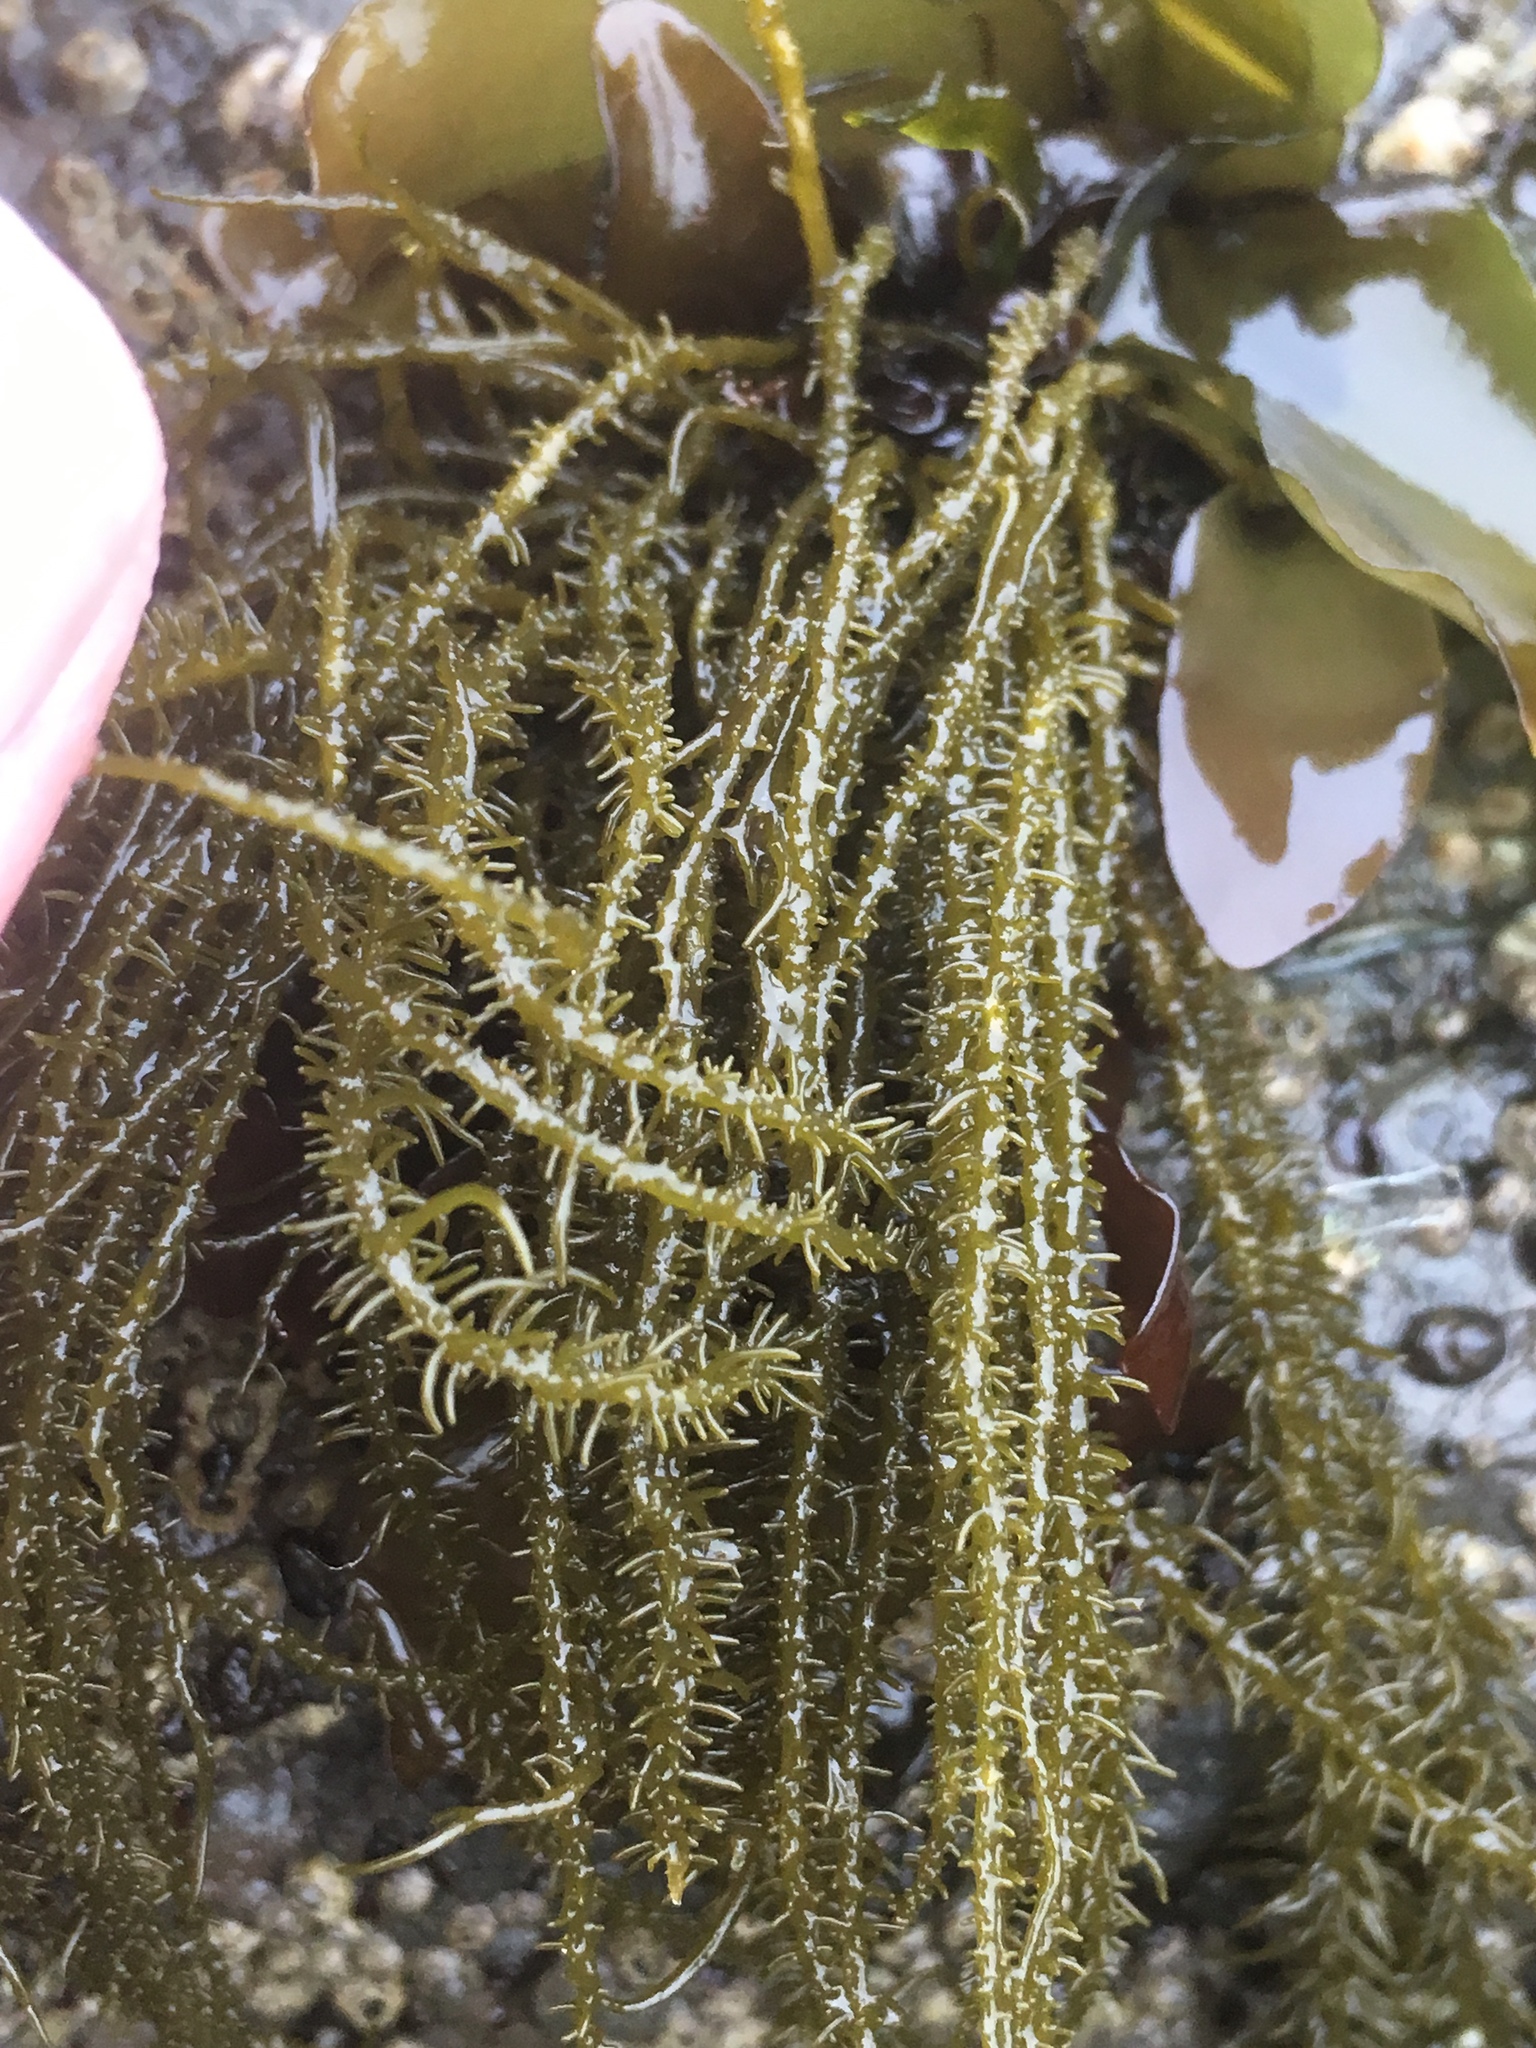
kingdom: Chromista
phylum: Ochrophyta
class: Phaeophyceae
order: Scytosiphonales
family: Scytosiphonaceae
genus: Analipus
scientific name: Analipus japonicus
